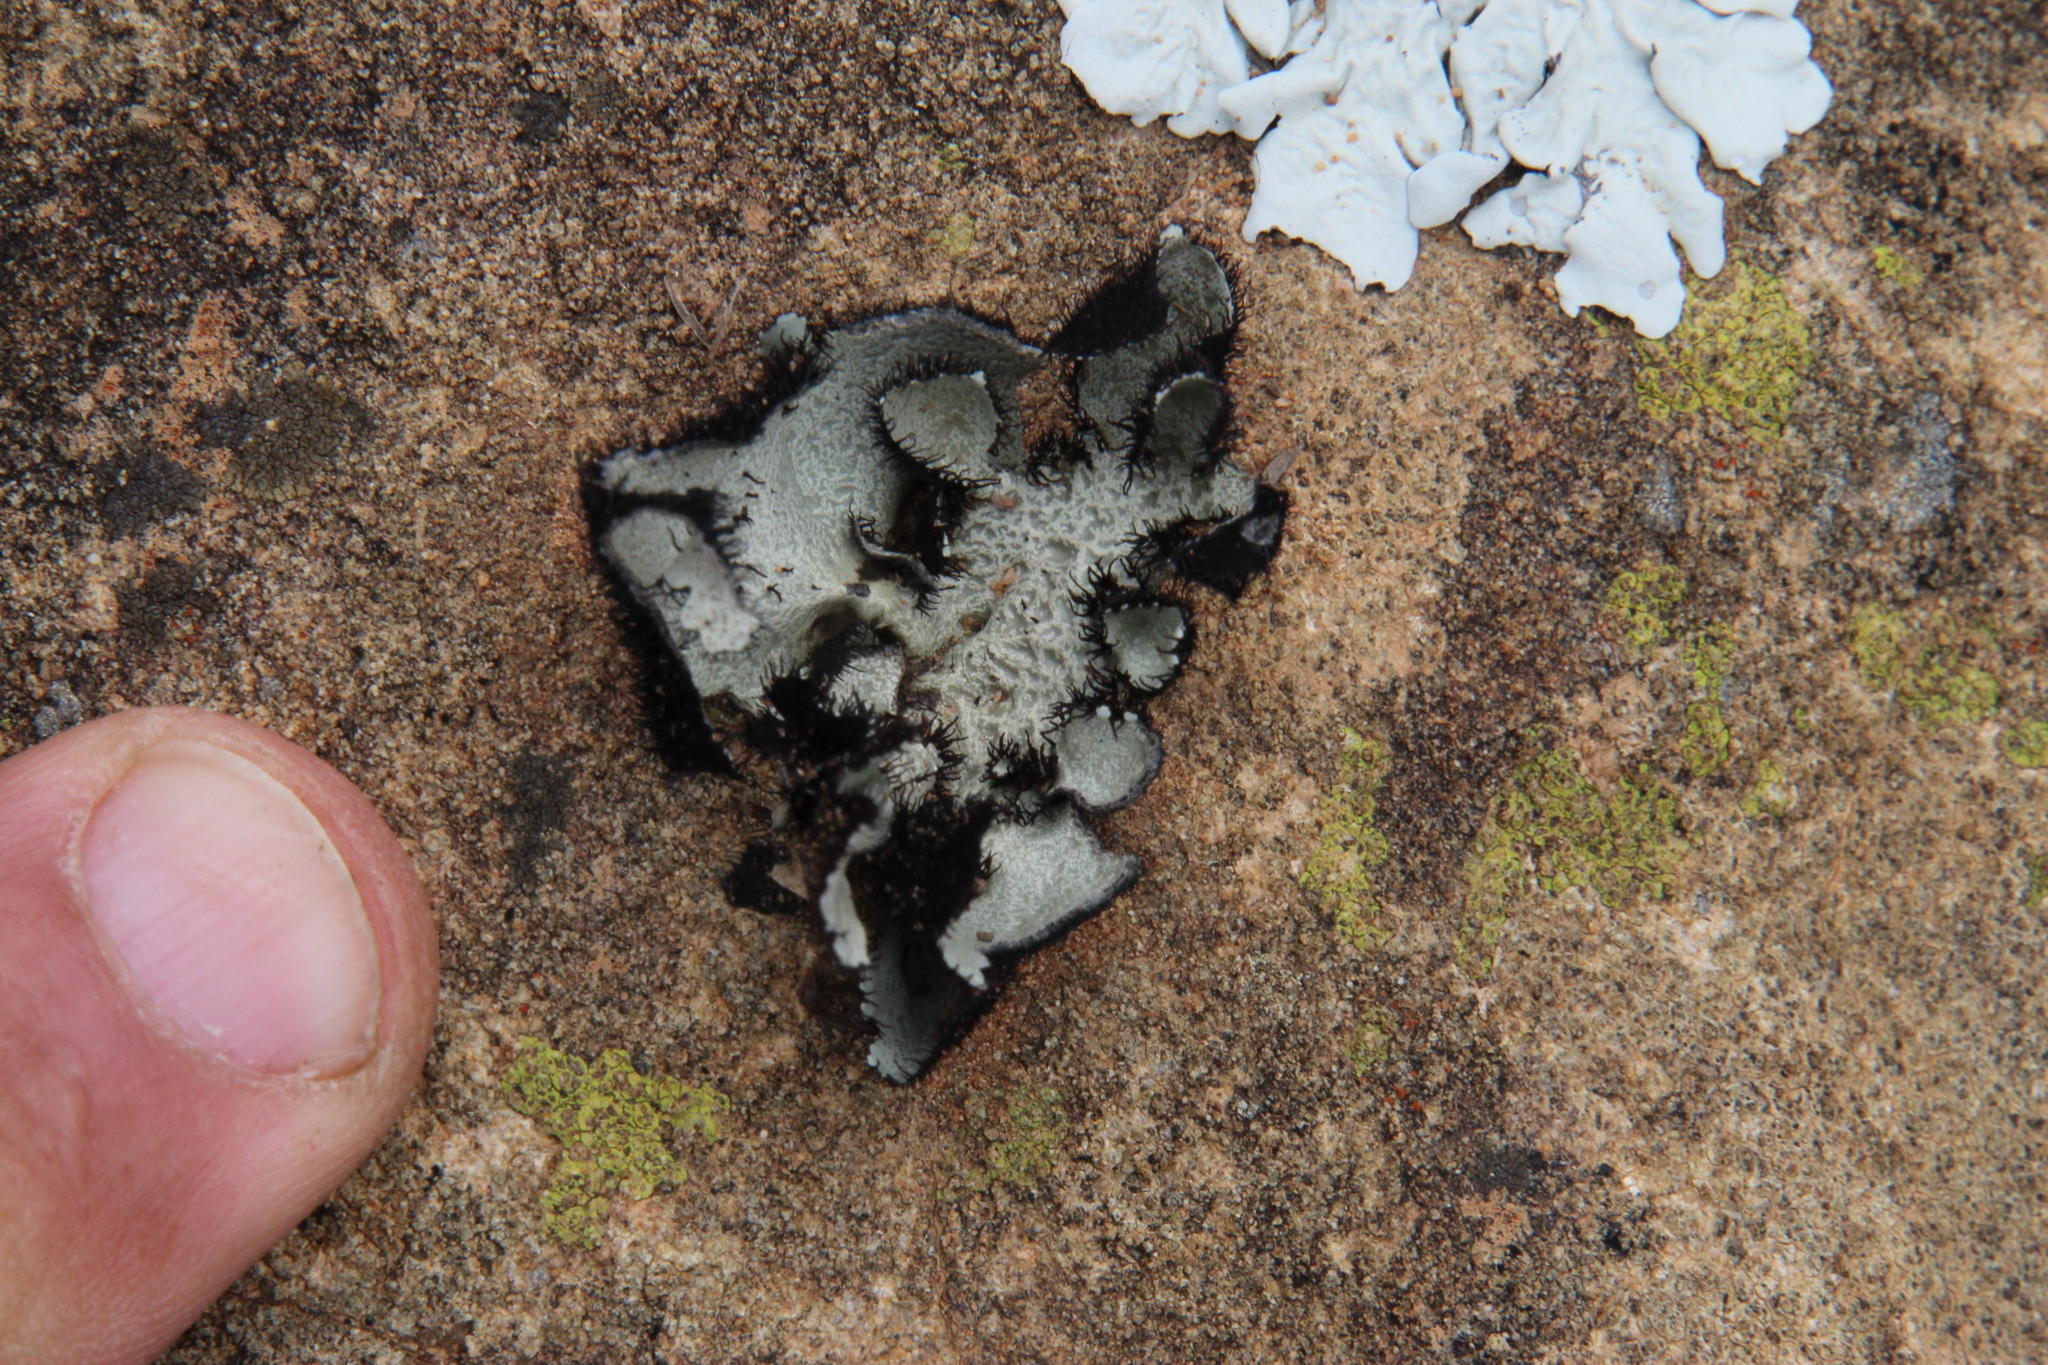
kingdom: Fungi
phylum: Ascomycota
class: Lecanoromycetes
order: Lecanorales
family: Parmeliaceae
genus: Xanthoparmelia
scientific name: Xanthoparmelia hottentotta
